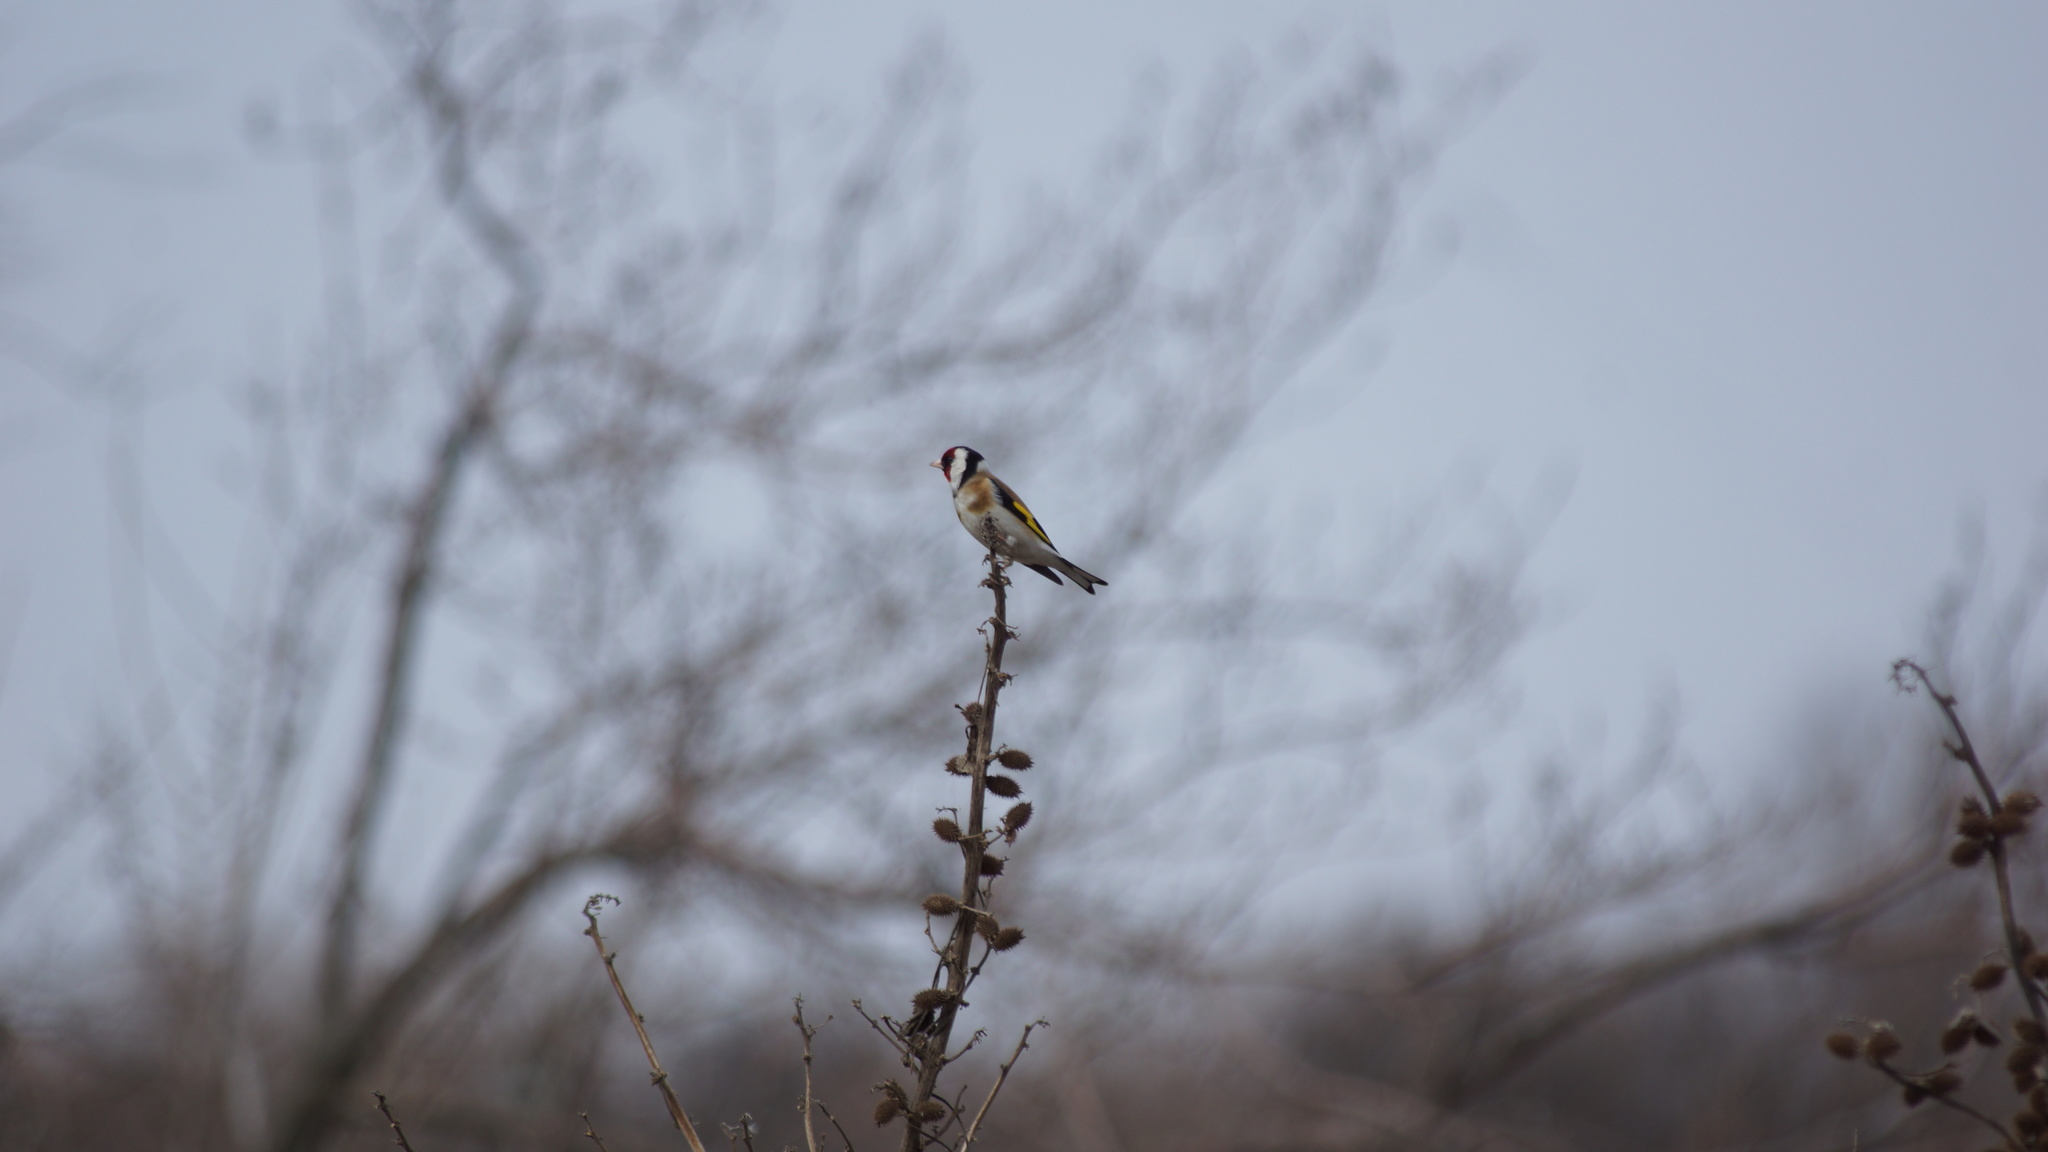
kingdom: Animalia
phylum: Chordata
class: Aves
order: Passeriformes
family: Fringillidae
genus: Carduelis
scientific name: Carduelis carduelis
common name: European goldfinch
